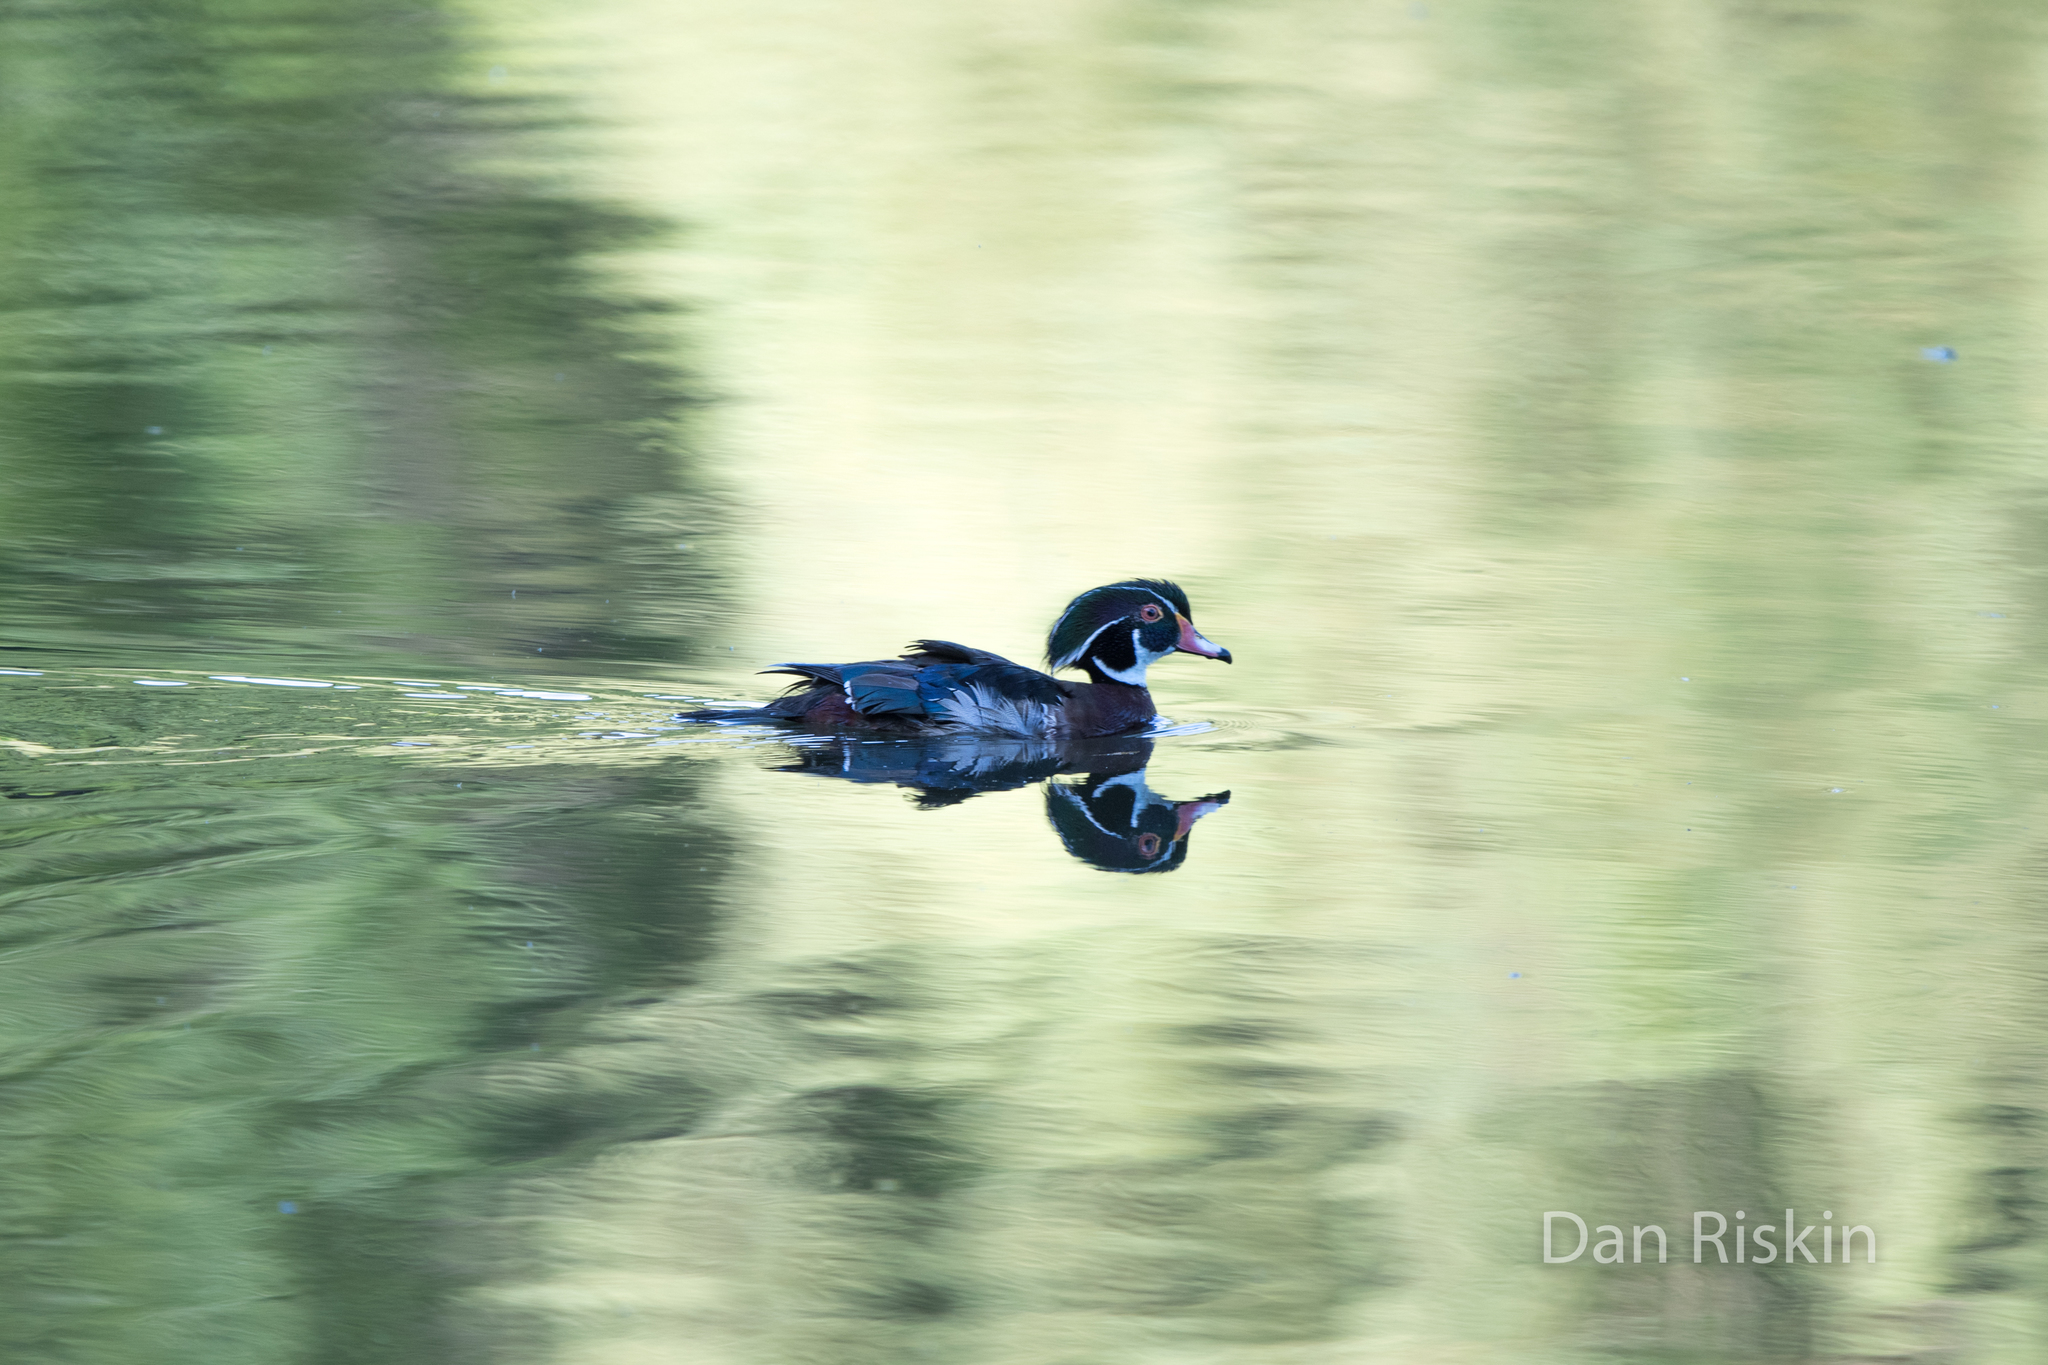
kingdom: Animalia
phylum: Chordata
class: Aves
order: Anseriformes
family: Anatidae
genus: Aix
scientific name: Aix sponsa
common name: Wood duck
